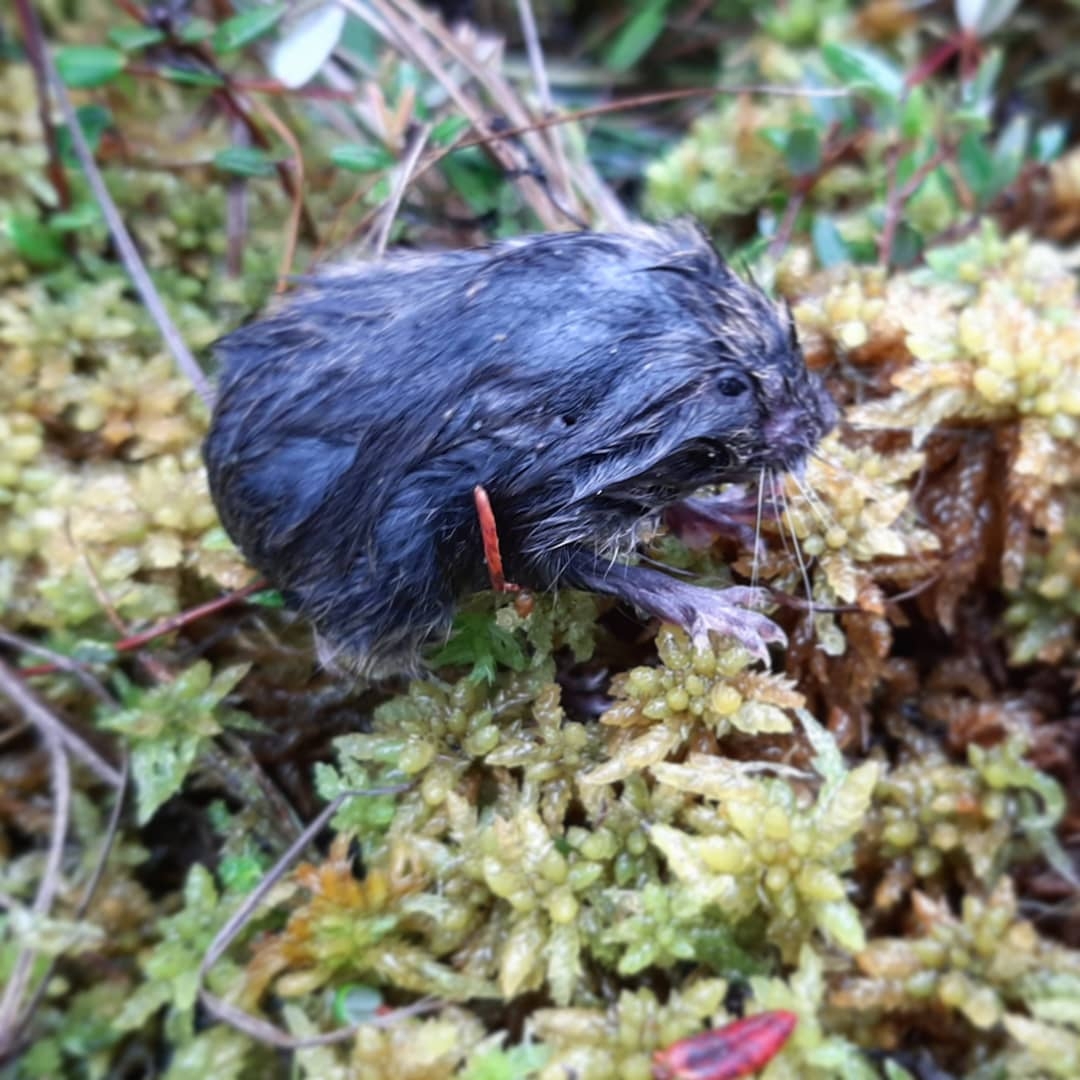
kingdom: Animalia
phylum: Chordata
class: Mammalia
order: Rodentia
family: Cricetidae
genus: Microtus
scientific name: Microtus arvalis
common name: Common vole
